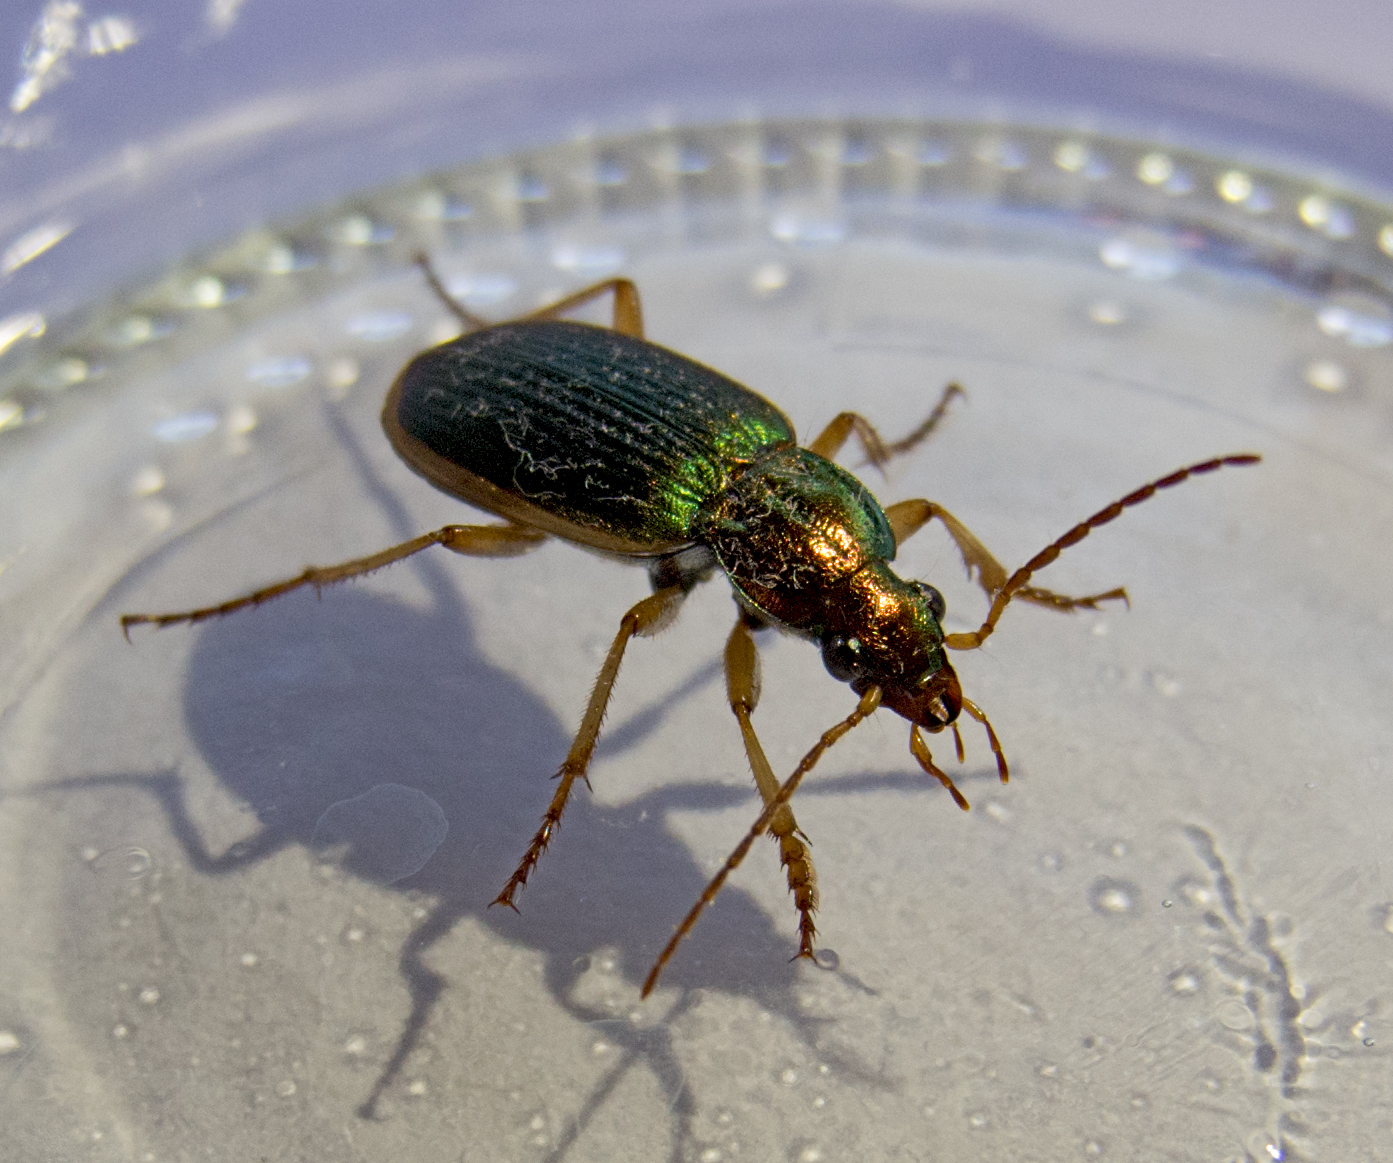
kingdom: Animalia
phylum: Arthropoda
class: Insecta
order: Coleoptera
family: Carabidae
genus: Chlaenius
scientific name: Chlaenius festivus
